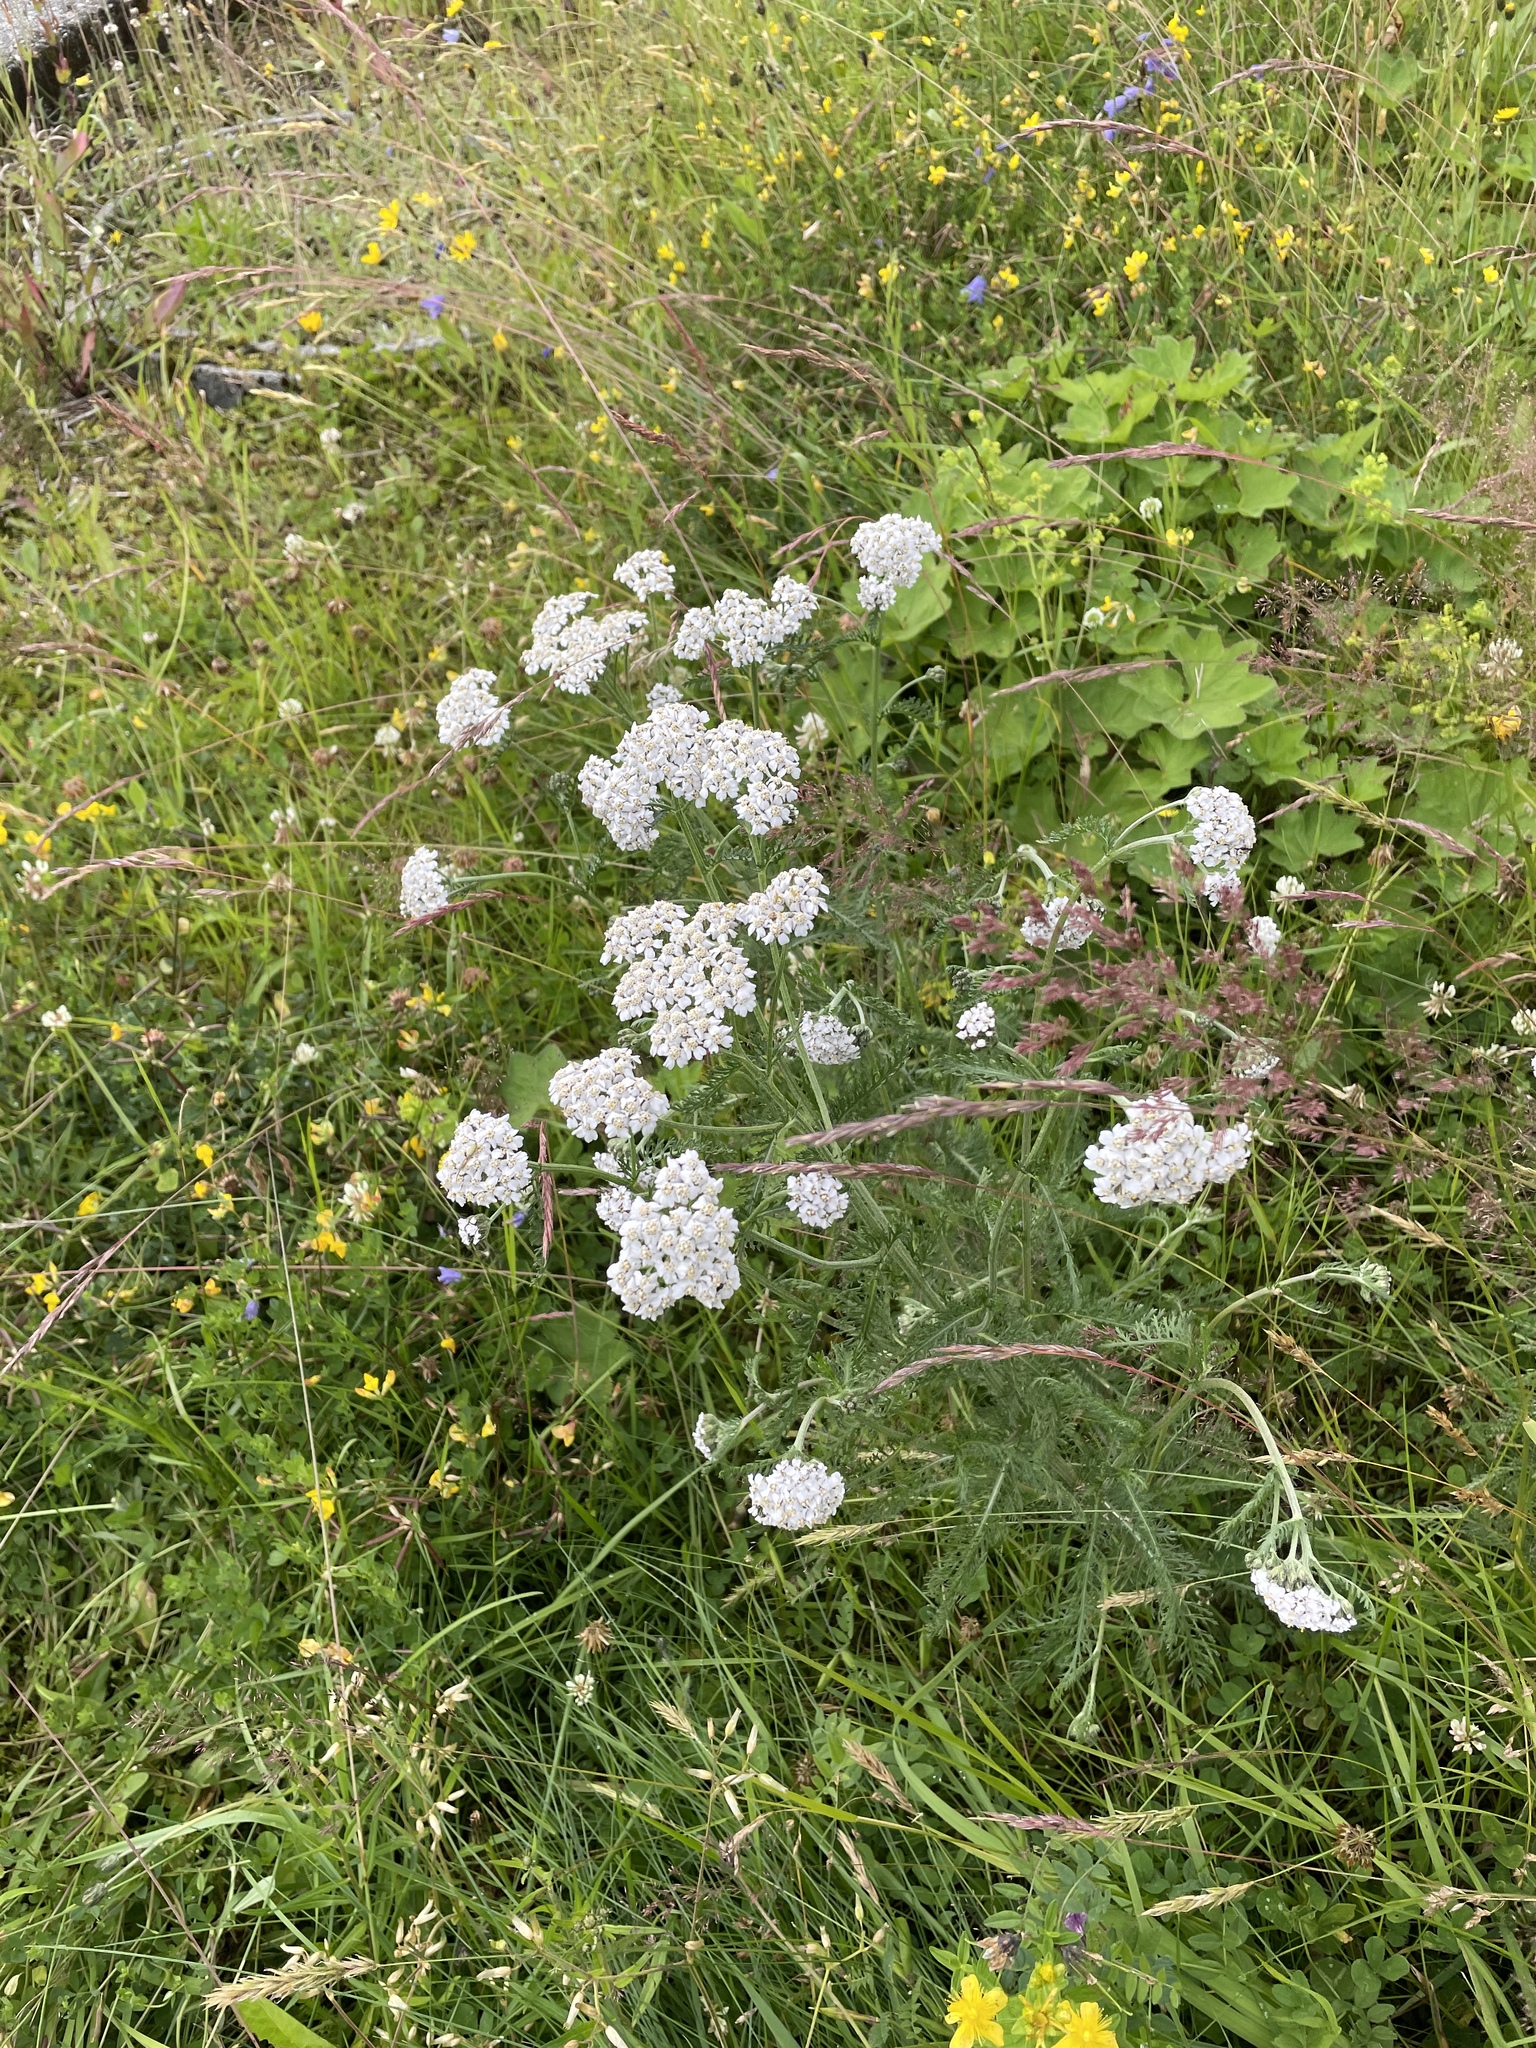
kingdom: Plantae
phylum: Tracheophyta
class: Magnoliopsida
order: Asterales
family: Asteraceae
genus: Achillea
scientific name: Achillea millefolium
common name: Yarrow
